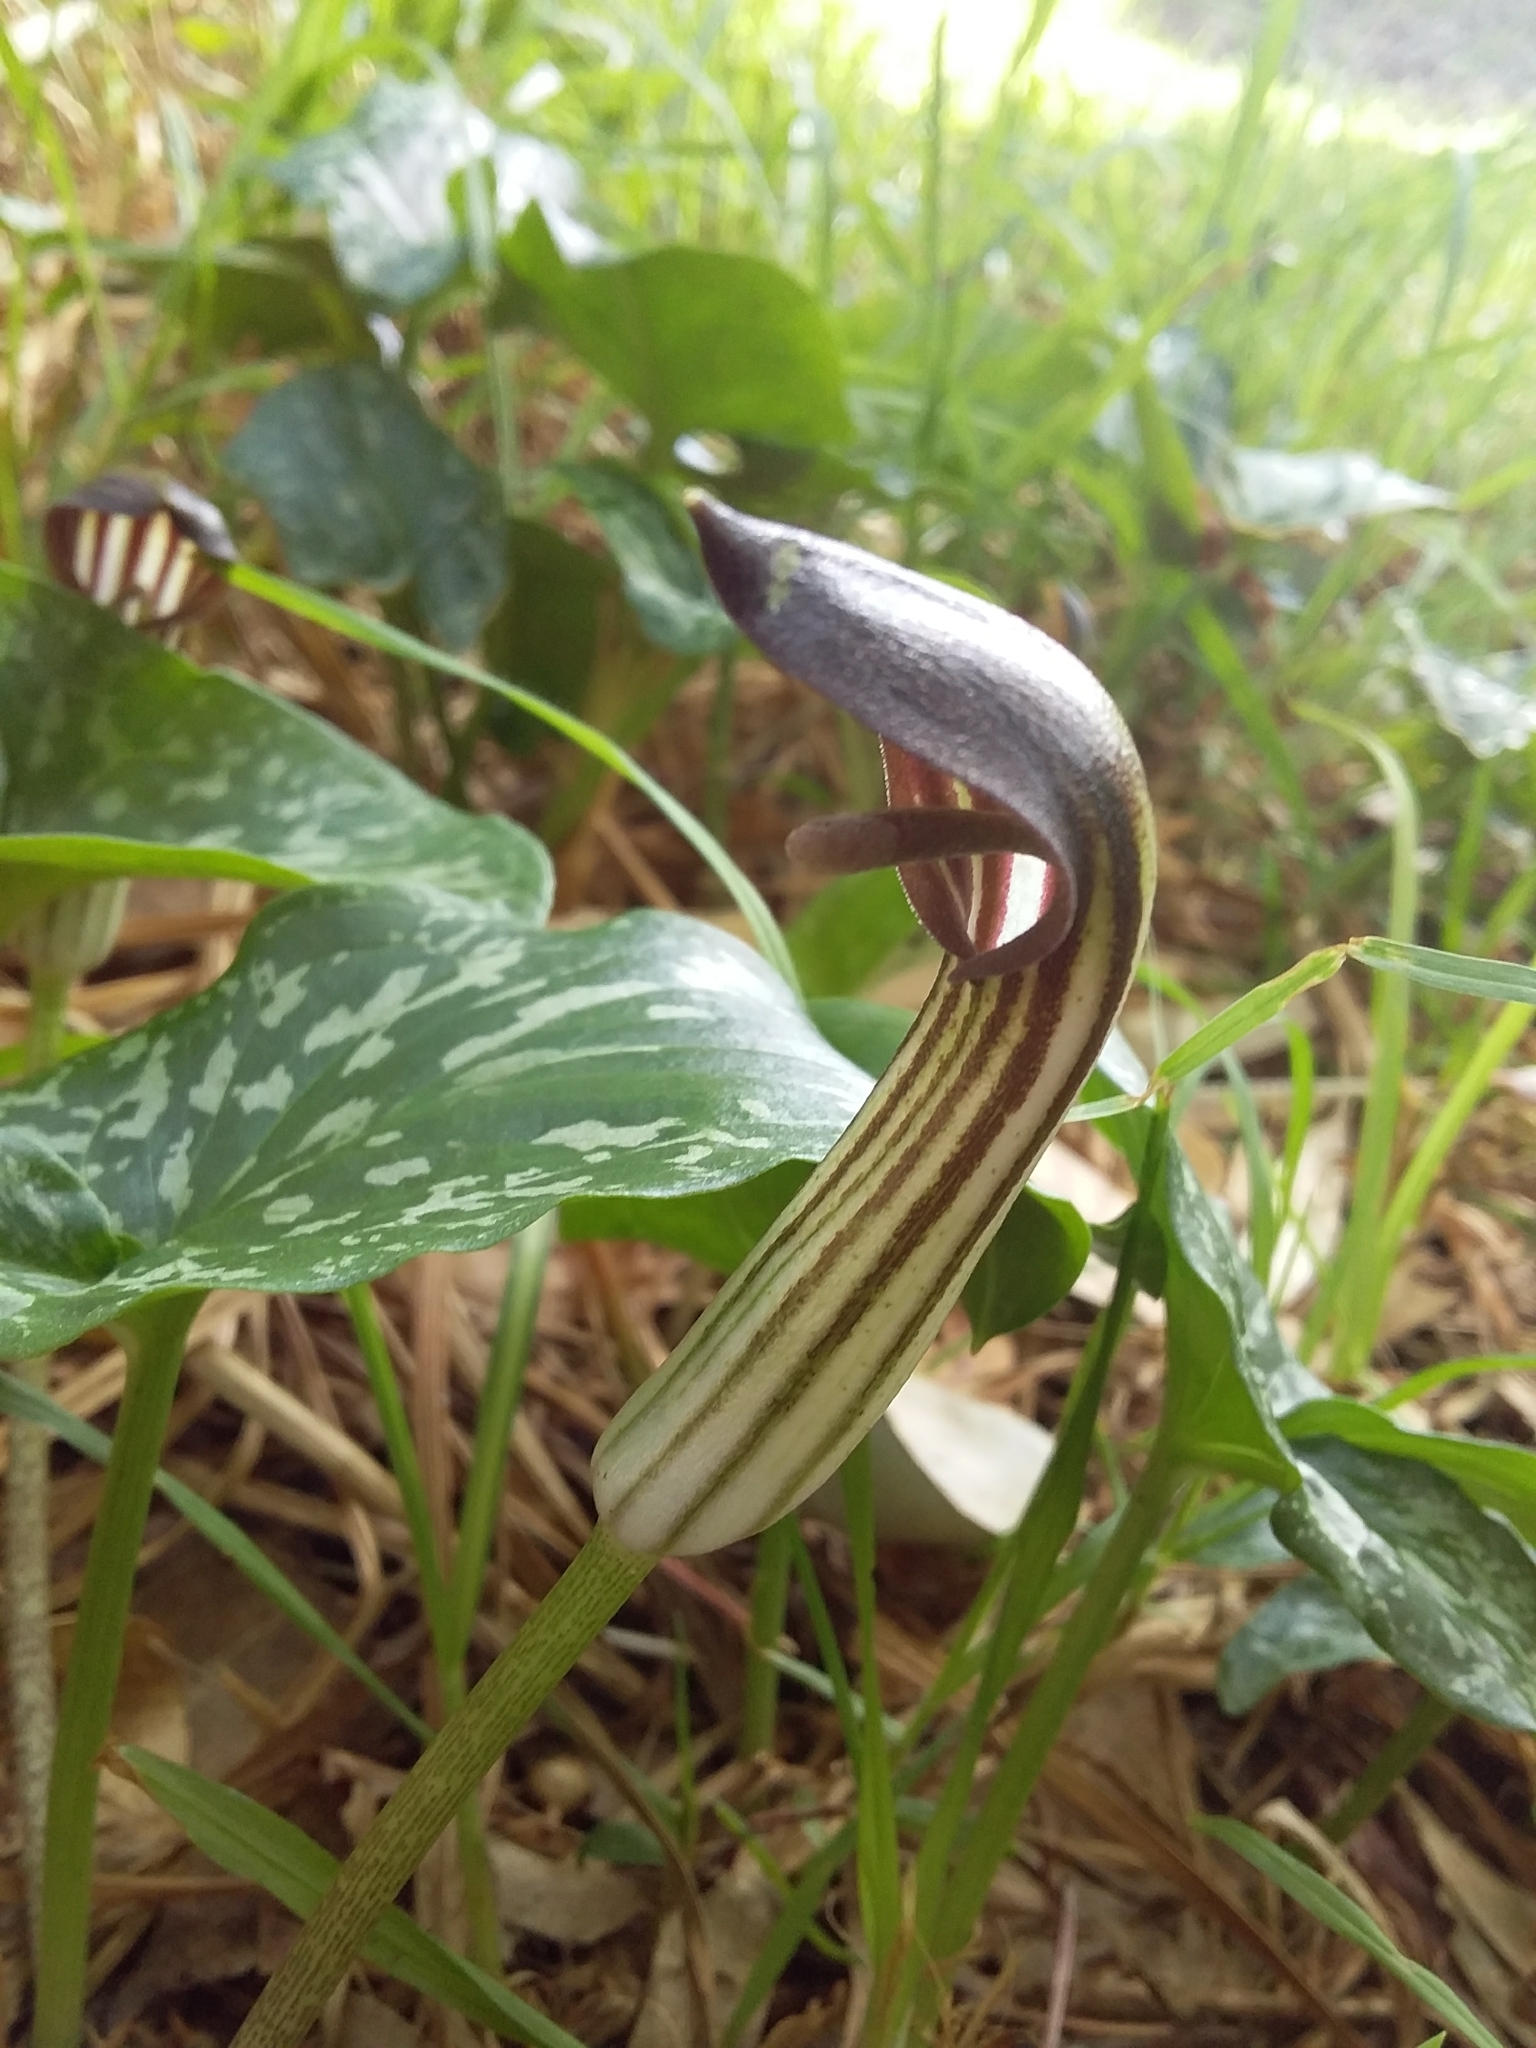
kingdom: Plantae
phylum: Tracheophyta
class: Liliopsida
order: Alismatales
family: Araceae
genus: Arisarum
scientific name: Arisarum vulgare
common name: Common arisarum
